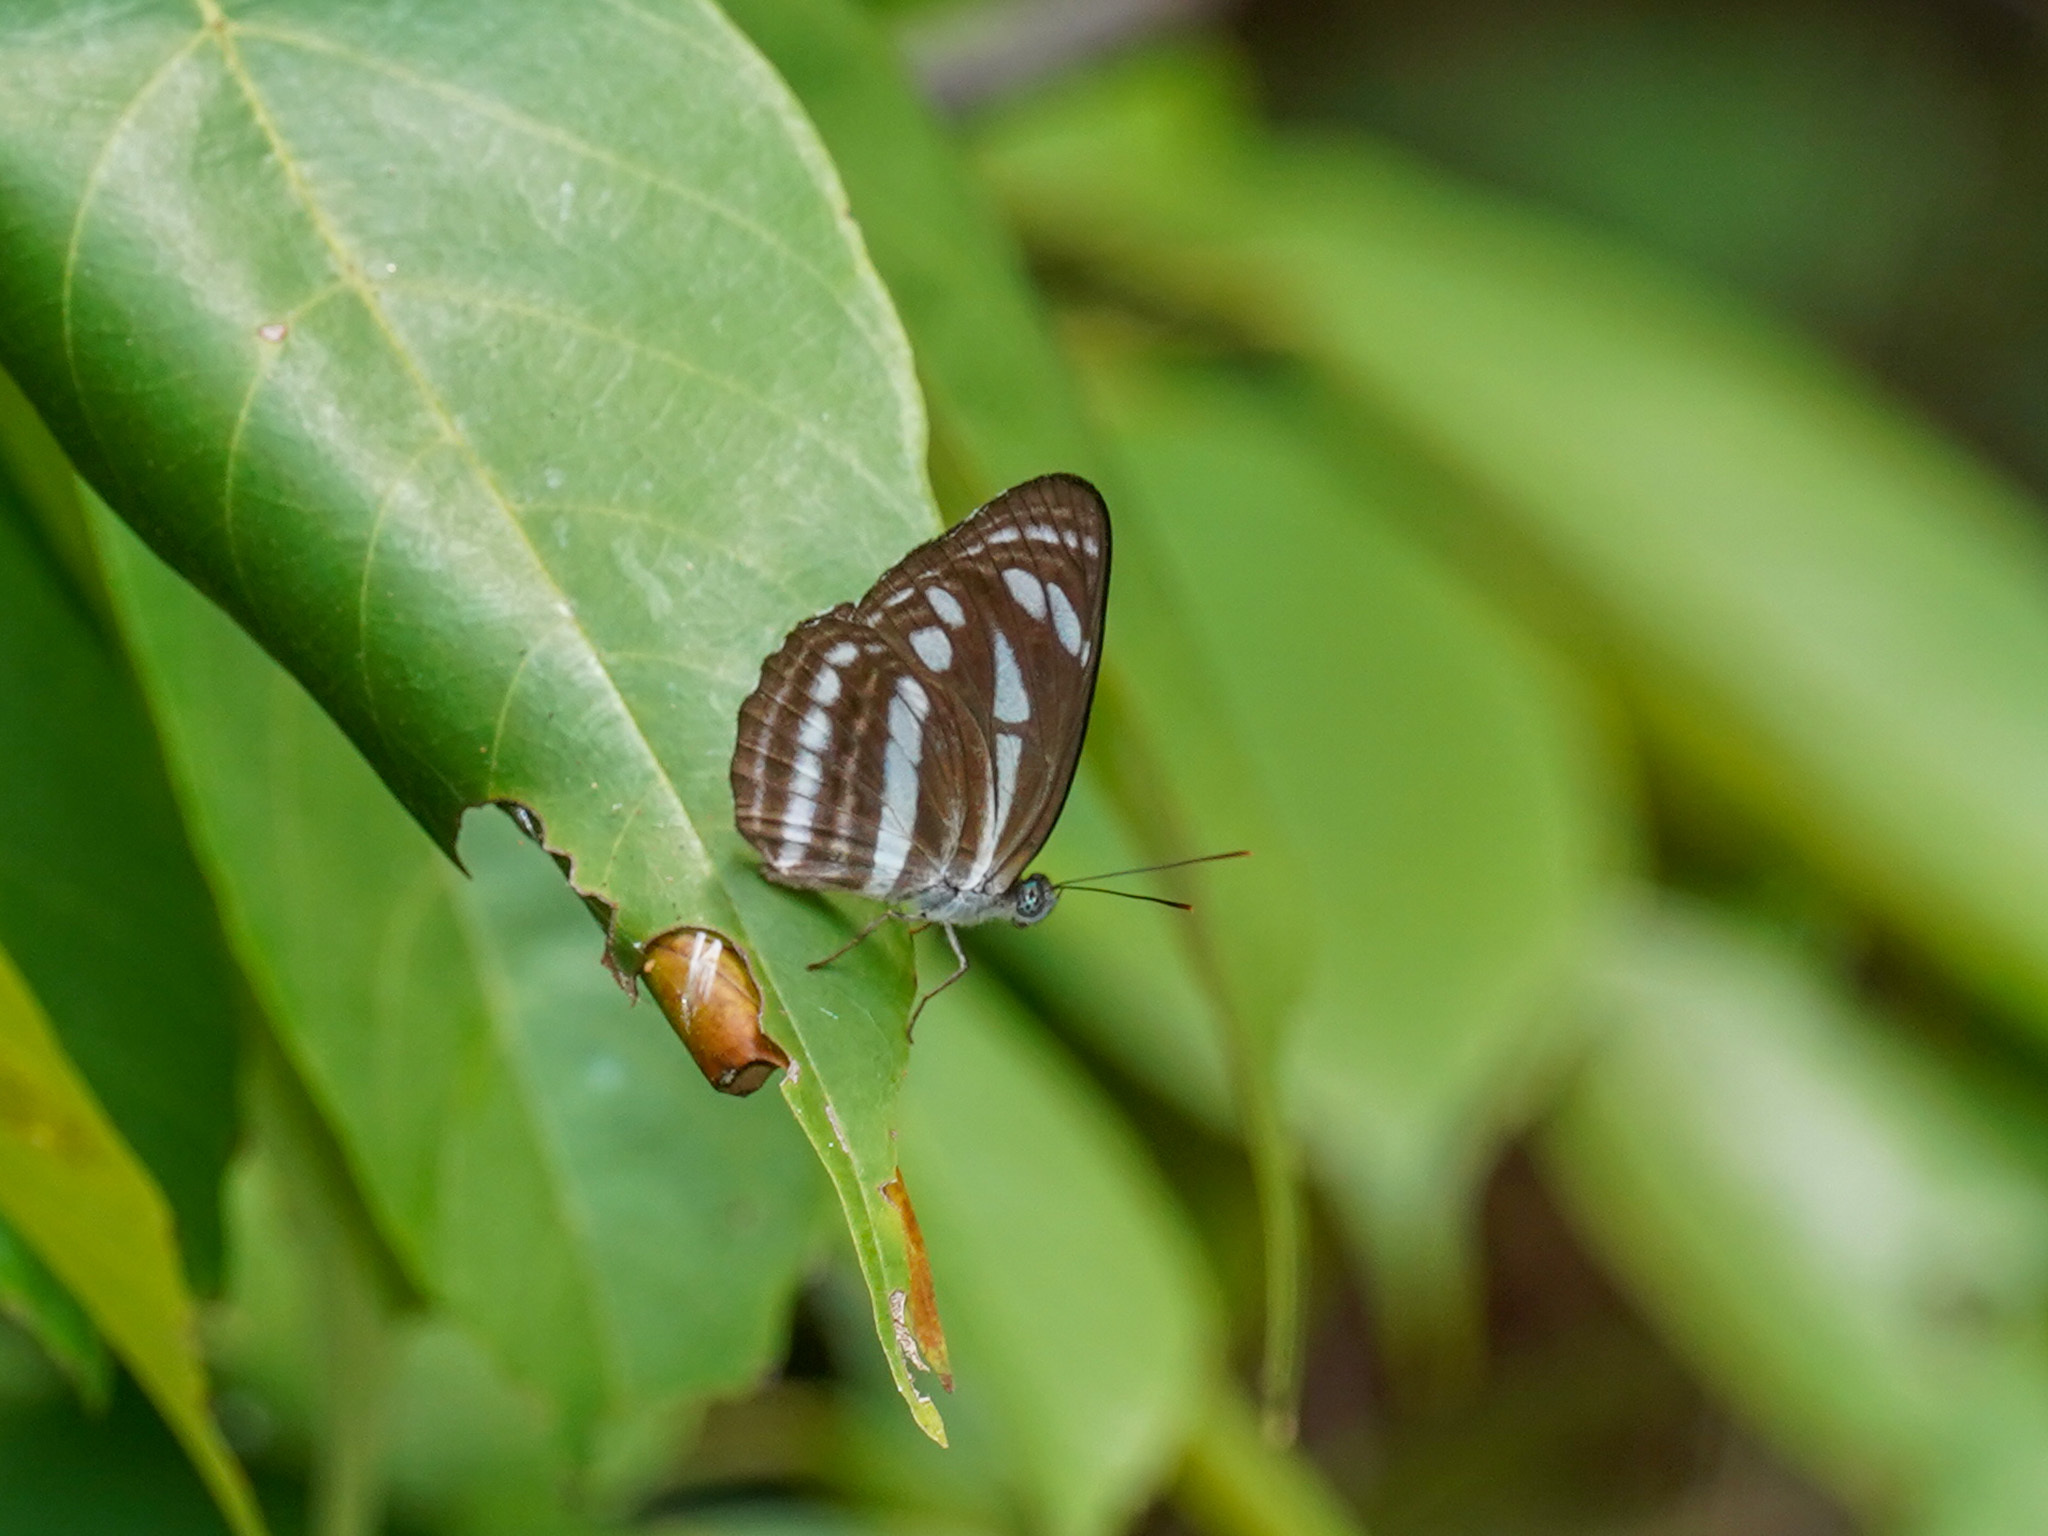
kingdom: Animalia
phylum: Arthropoda
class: Insecta
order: Lepidoptera
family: Nymphalidae
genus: Neptis
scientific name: Neptis leucoporos
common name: Grey sailer
